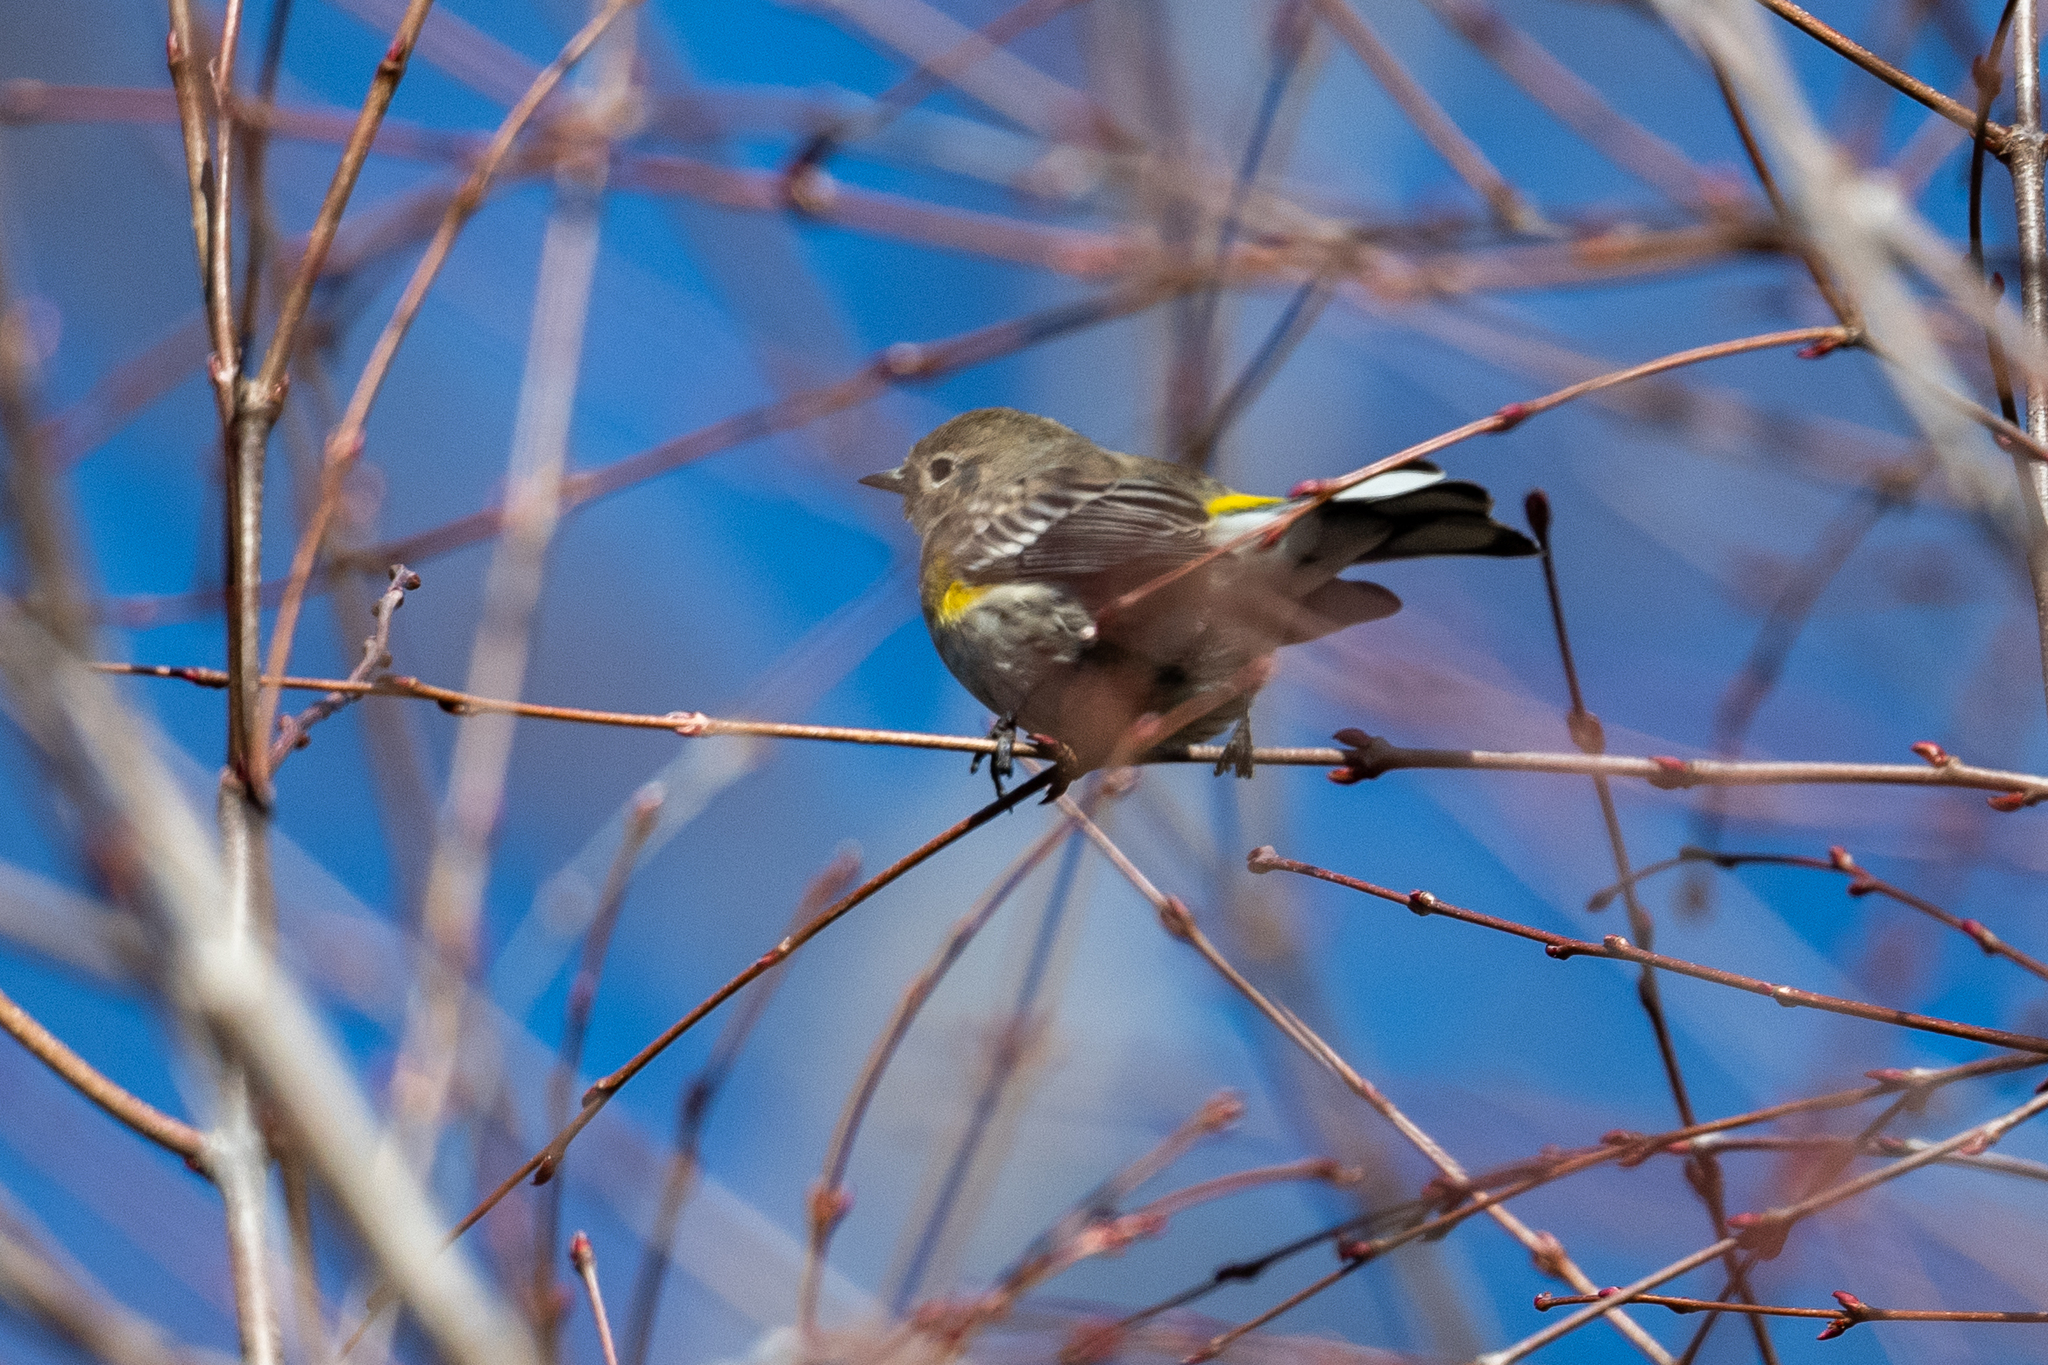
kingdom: Animalia
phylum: Chordata
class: Aves
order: Passeriformes
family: Parulidae
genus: Setophaga
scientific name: Setophaga coronata
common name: Myrtle warbler
